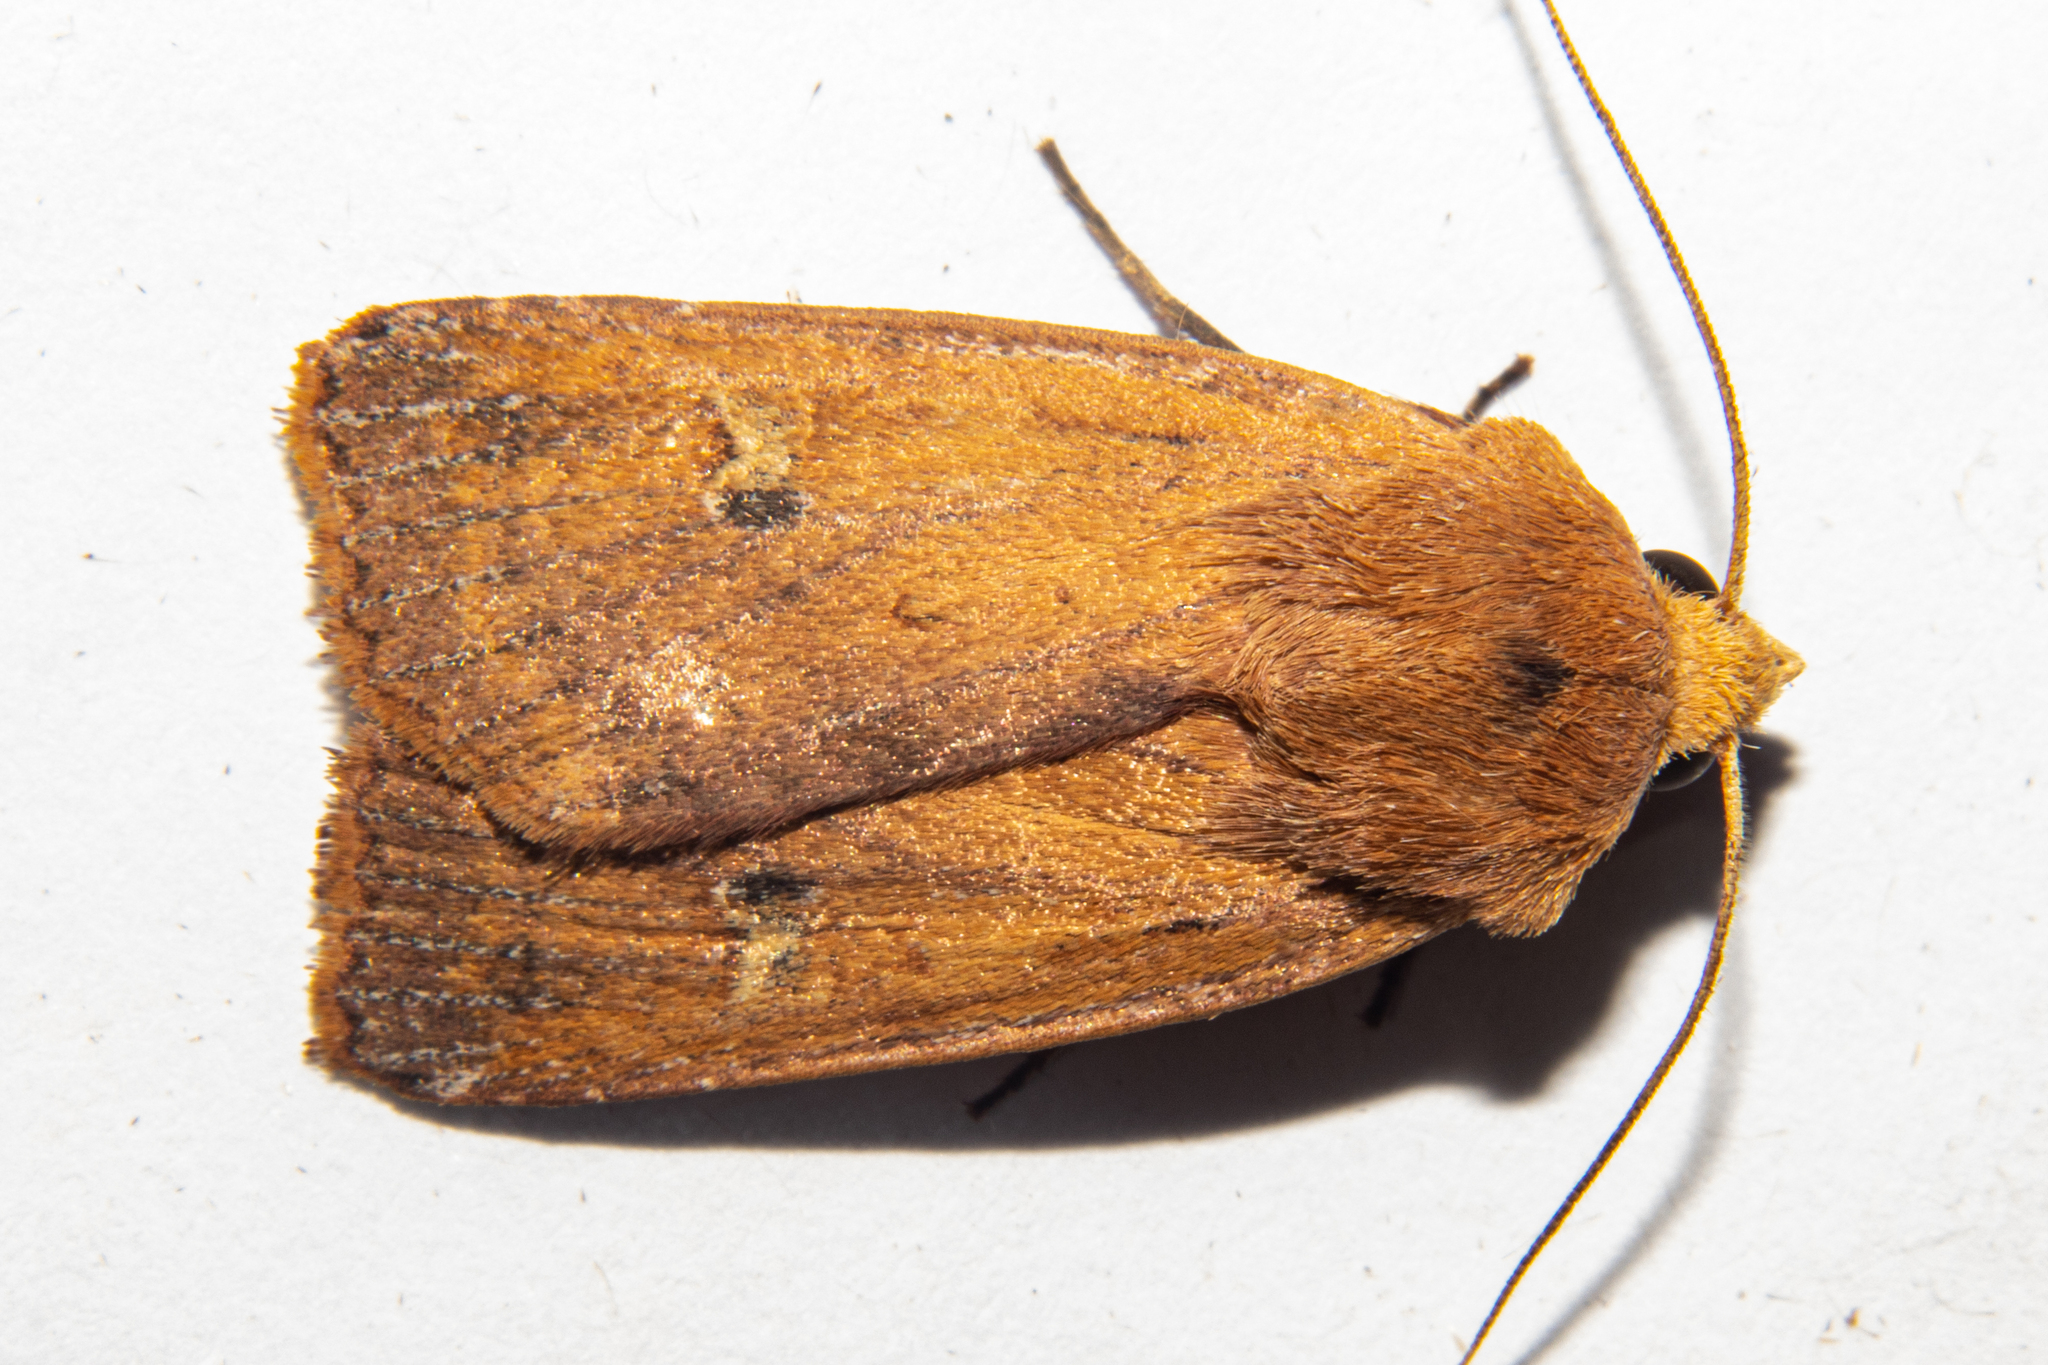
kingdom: Animalia
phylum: Arthropoda
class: Insecta
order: Lepidoptera
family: Noctuidae
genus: Diarsia
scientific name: Diarsia intermixta
